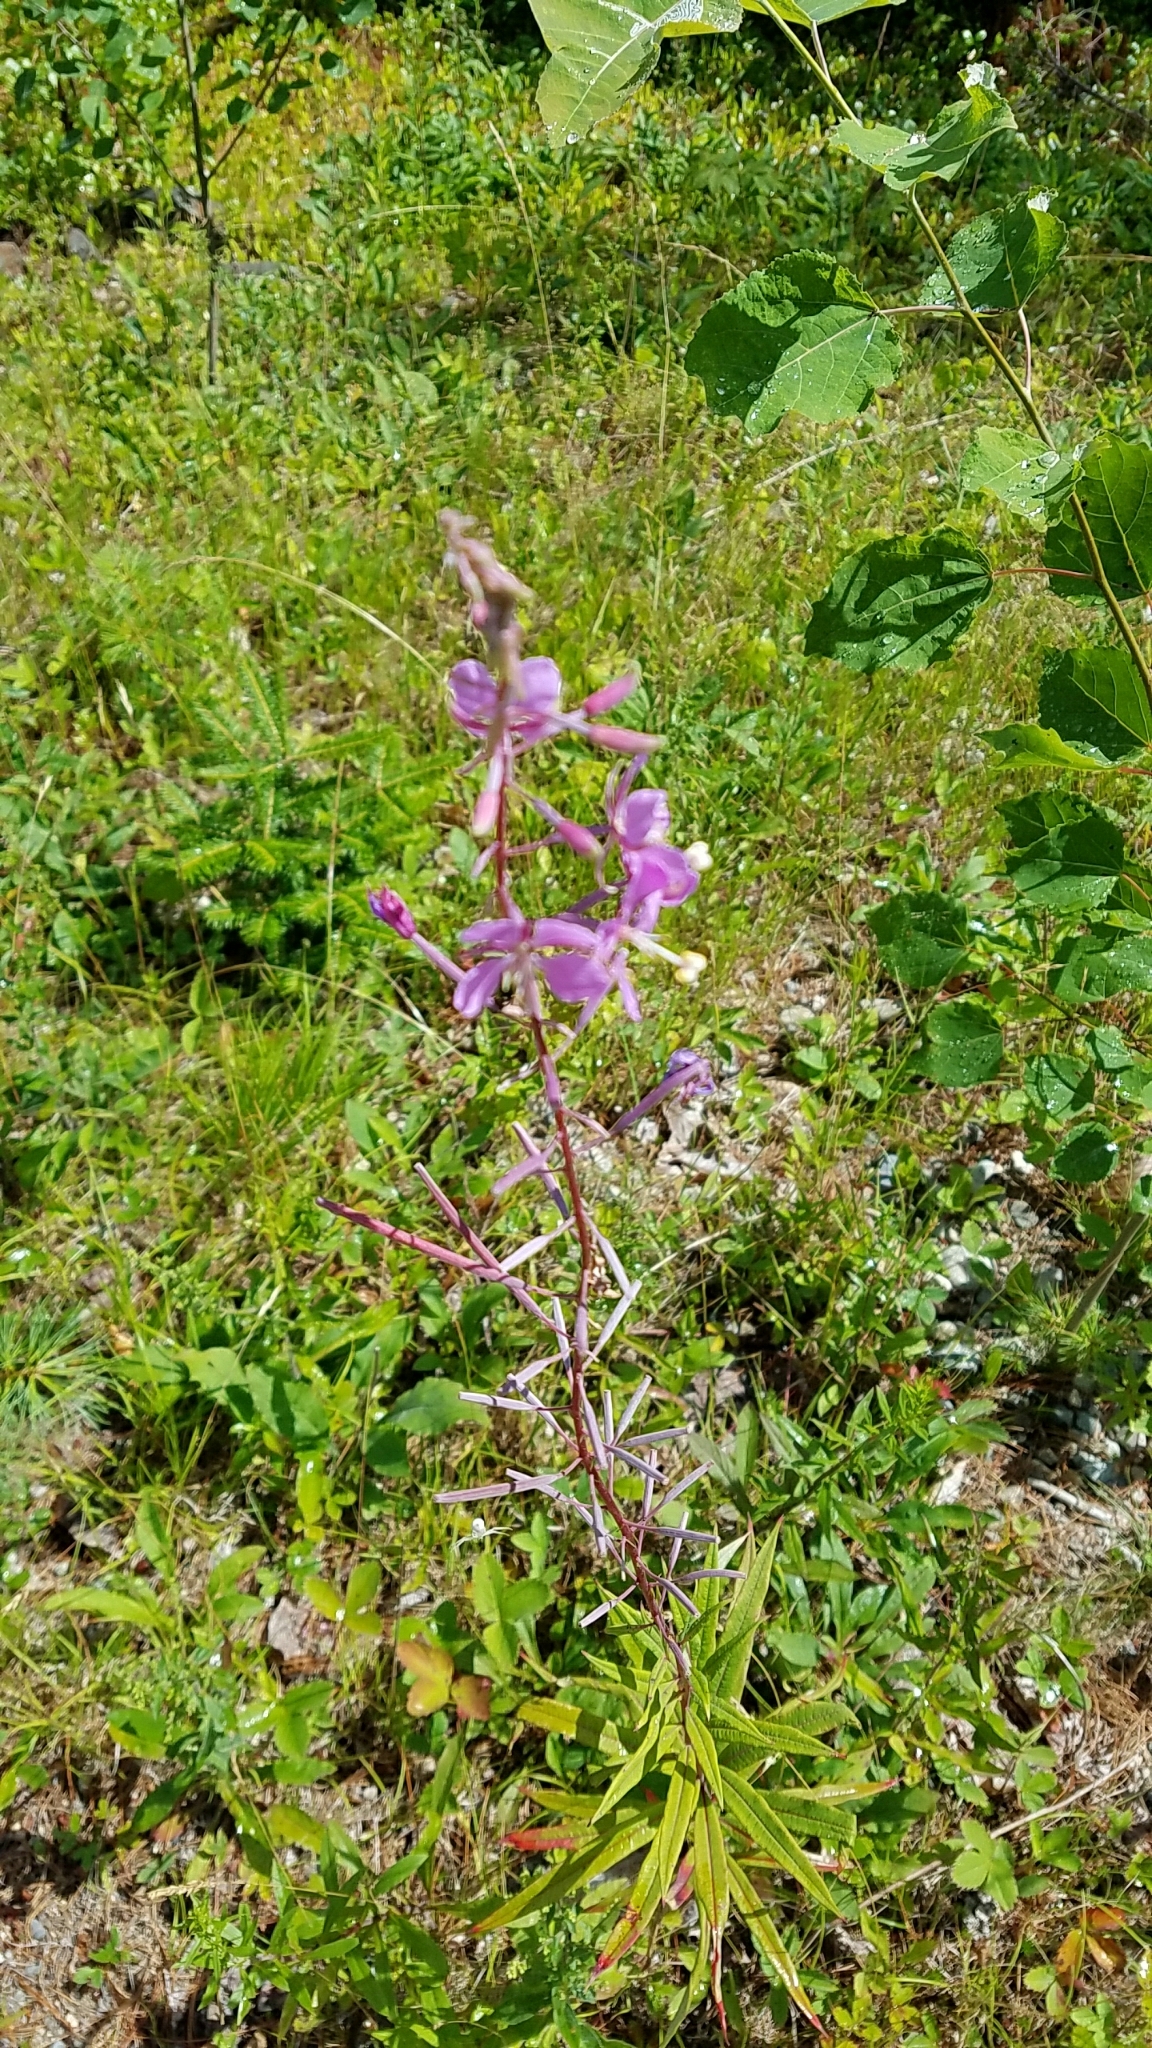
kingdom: Plantae
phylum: Tracheophyta
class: Magnoliopsida
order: Myrtales
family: Onagraceae
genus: Chamaenerion
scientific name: Chamaenerion angustifolium
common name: Fireweed
